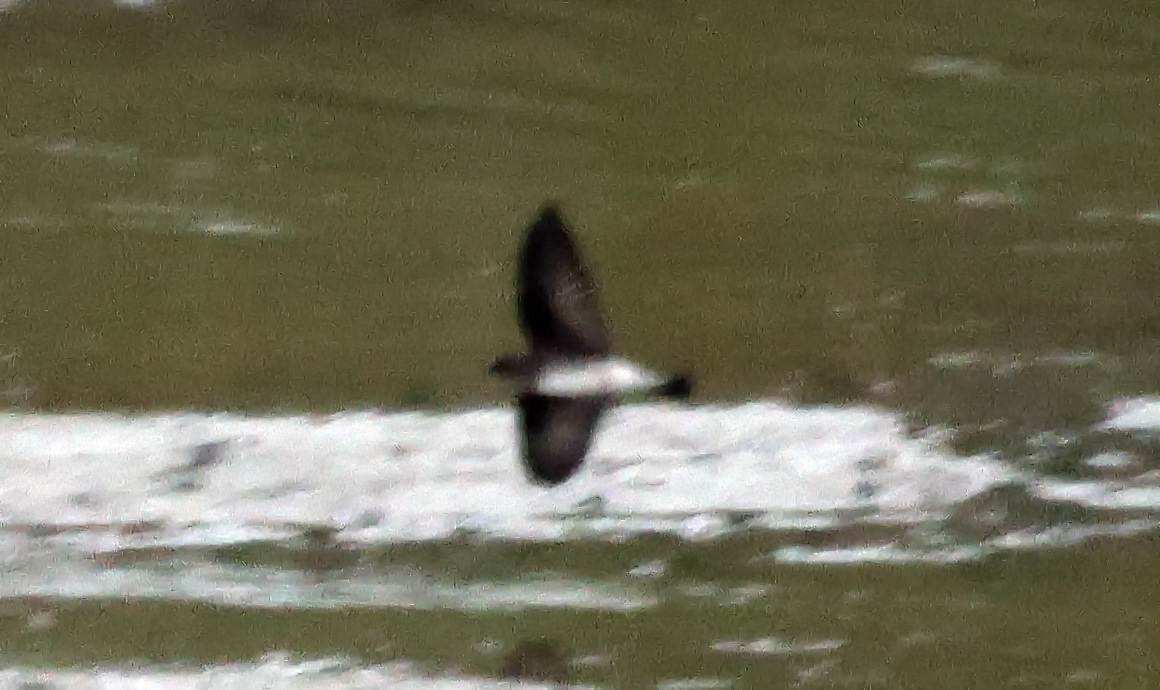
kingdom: Animalia
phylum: Chordata
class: Aves
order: Passeriformes
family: Hirundinidae
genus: Stelgidopteryx
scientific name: Stelgidopteryx serripennis
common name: Northern rough-winged swallow
